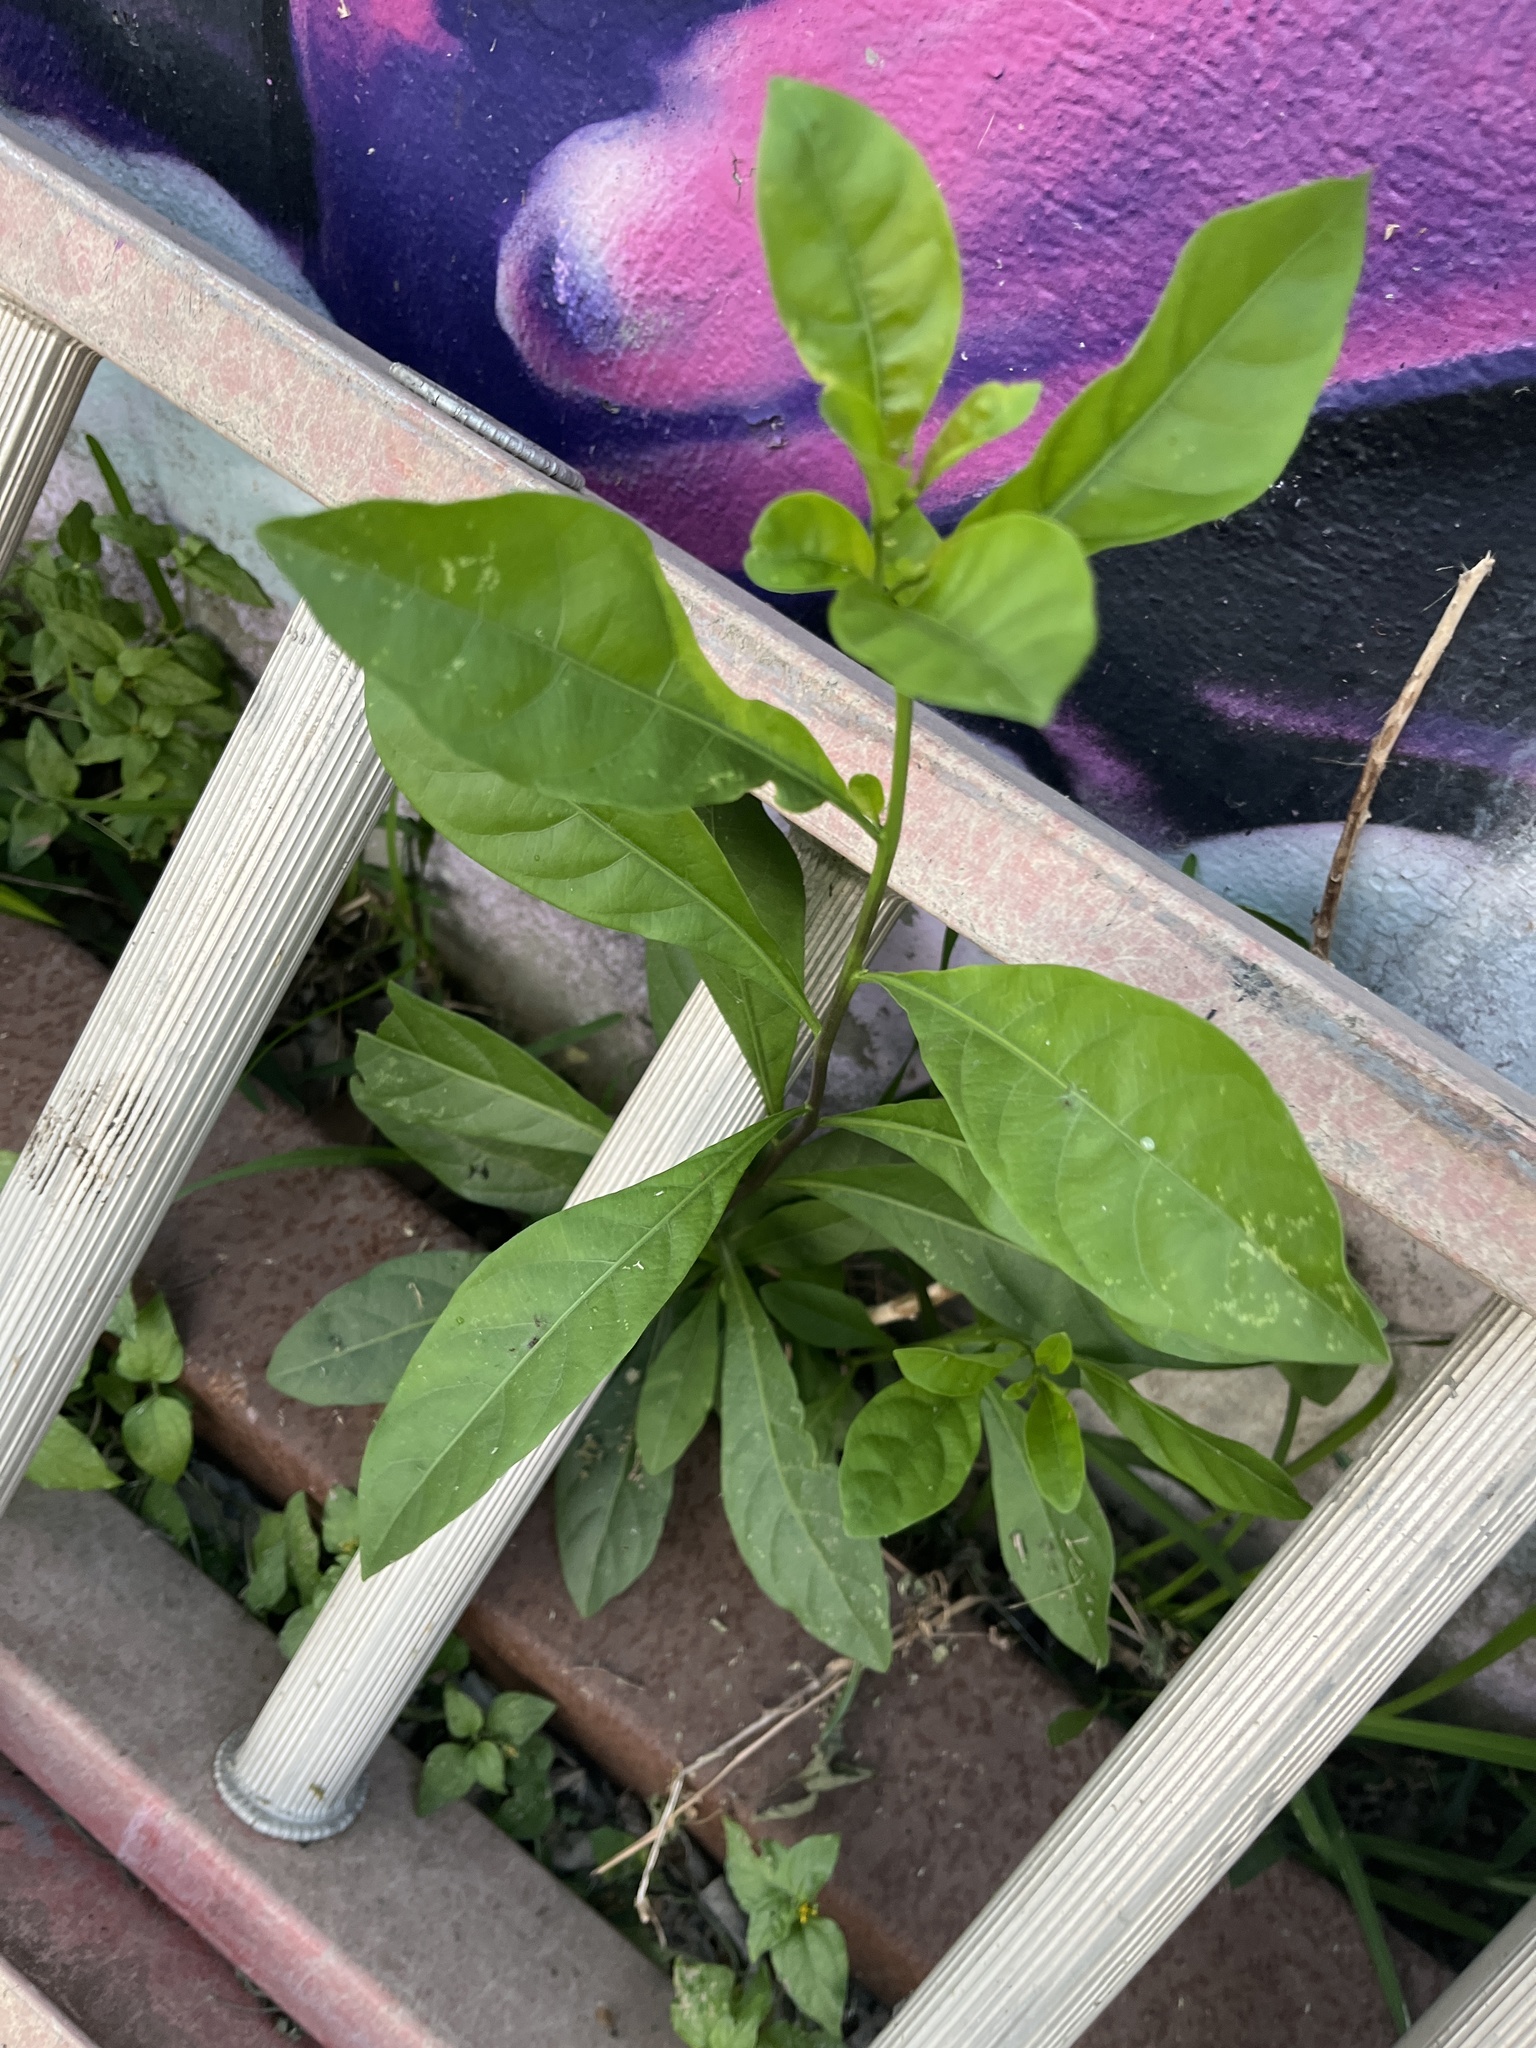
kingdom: Plantae
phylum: Tracheophyta
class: Magnoliopsida
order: Solanales
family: Solanaceae
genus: Solanum
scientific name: Solanum diphyllum
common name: Twoleaf nightshade
